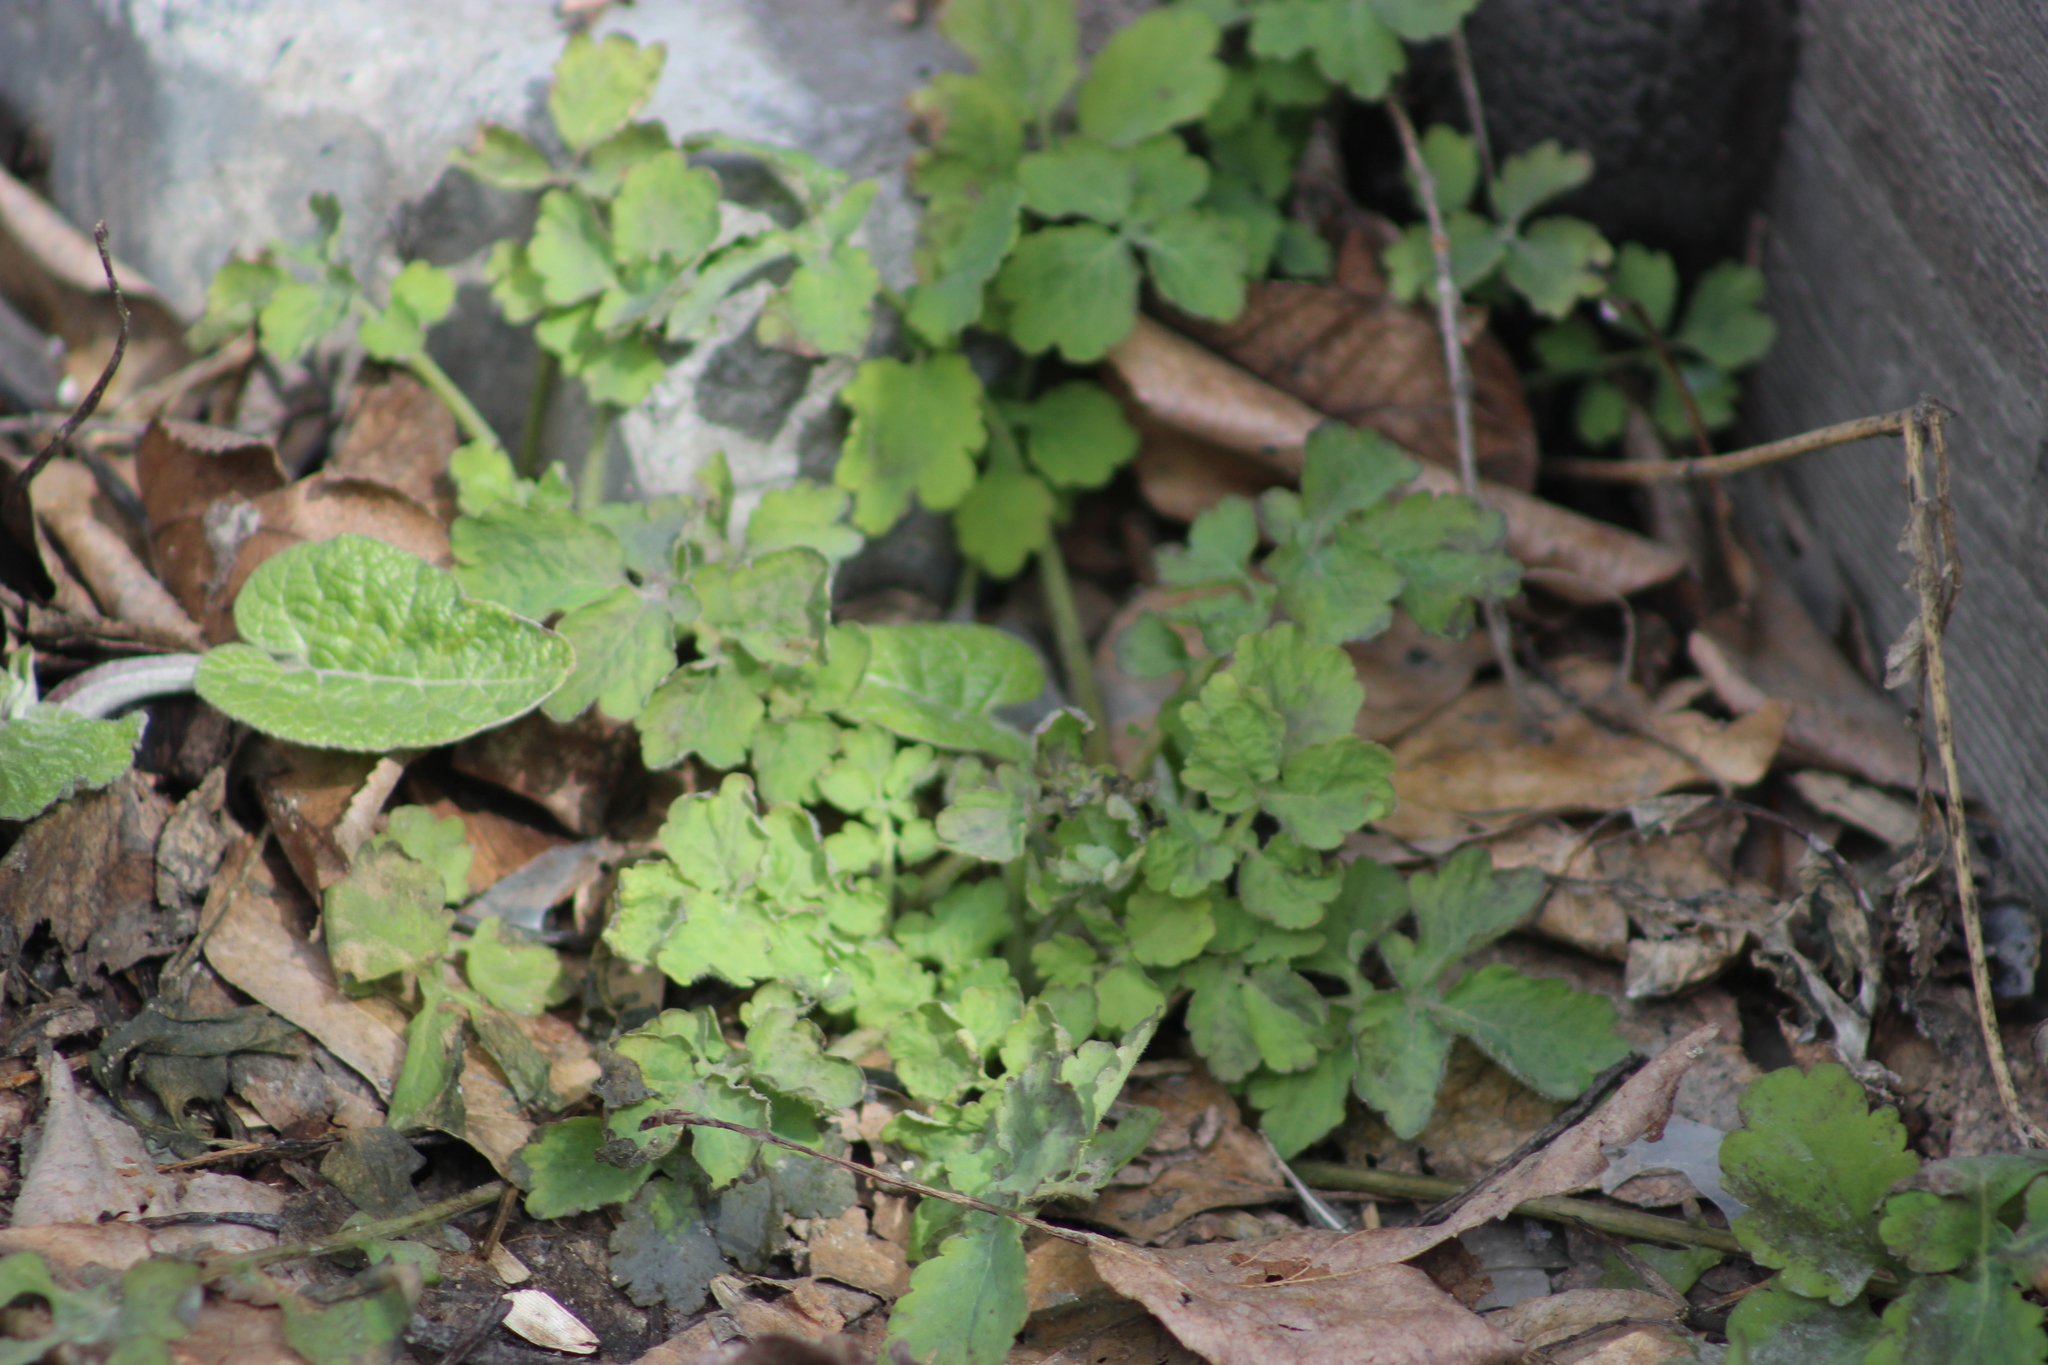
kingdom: Plantae
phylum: Tracheophyta
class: Magnoliopsida
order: Ranunculales
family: Papaveraceae
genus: Chelidonium
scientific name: Chelidonium majus
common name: Greater celandine
